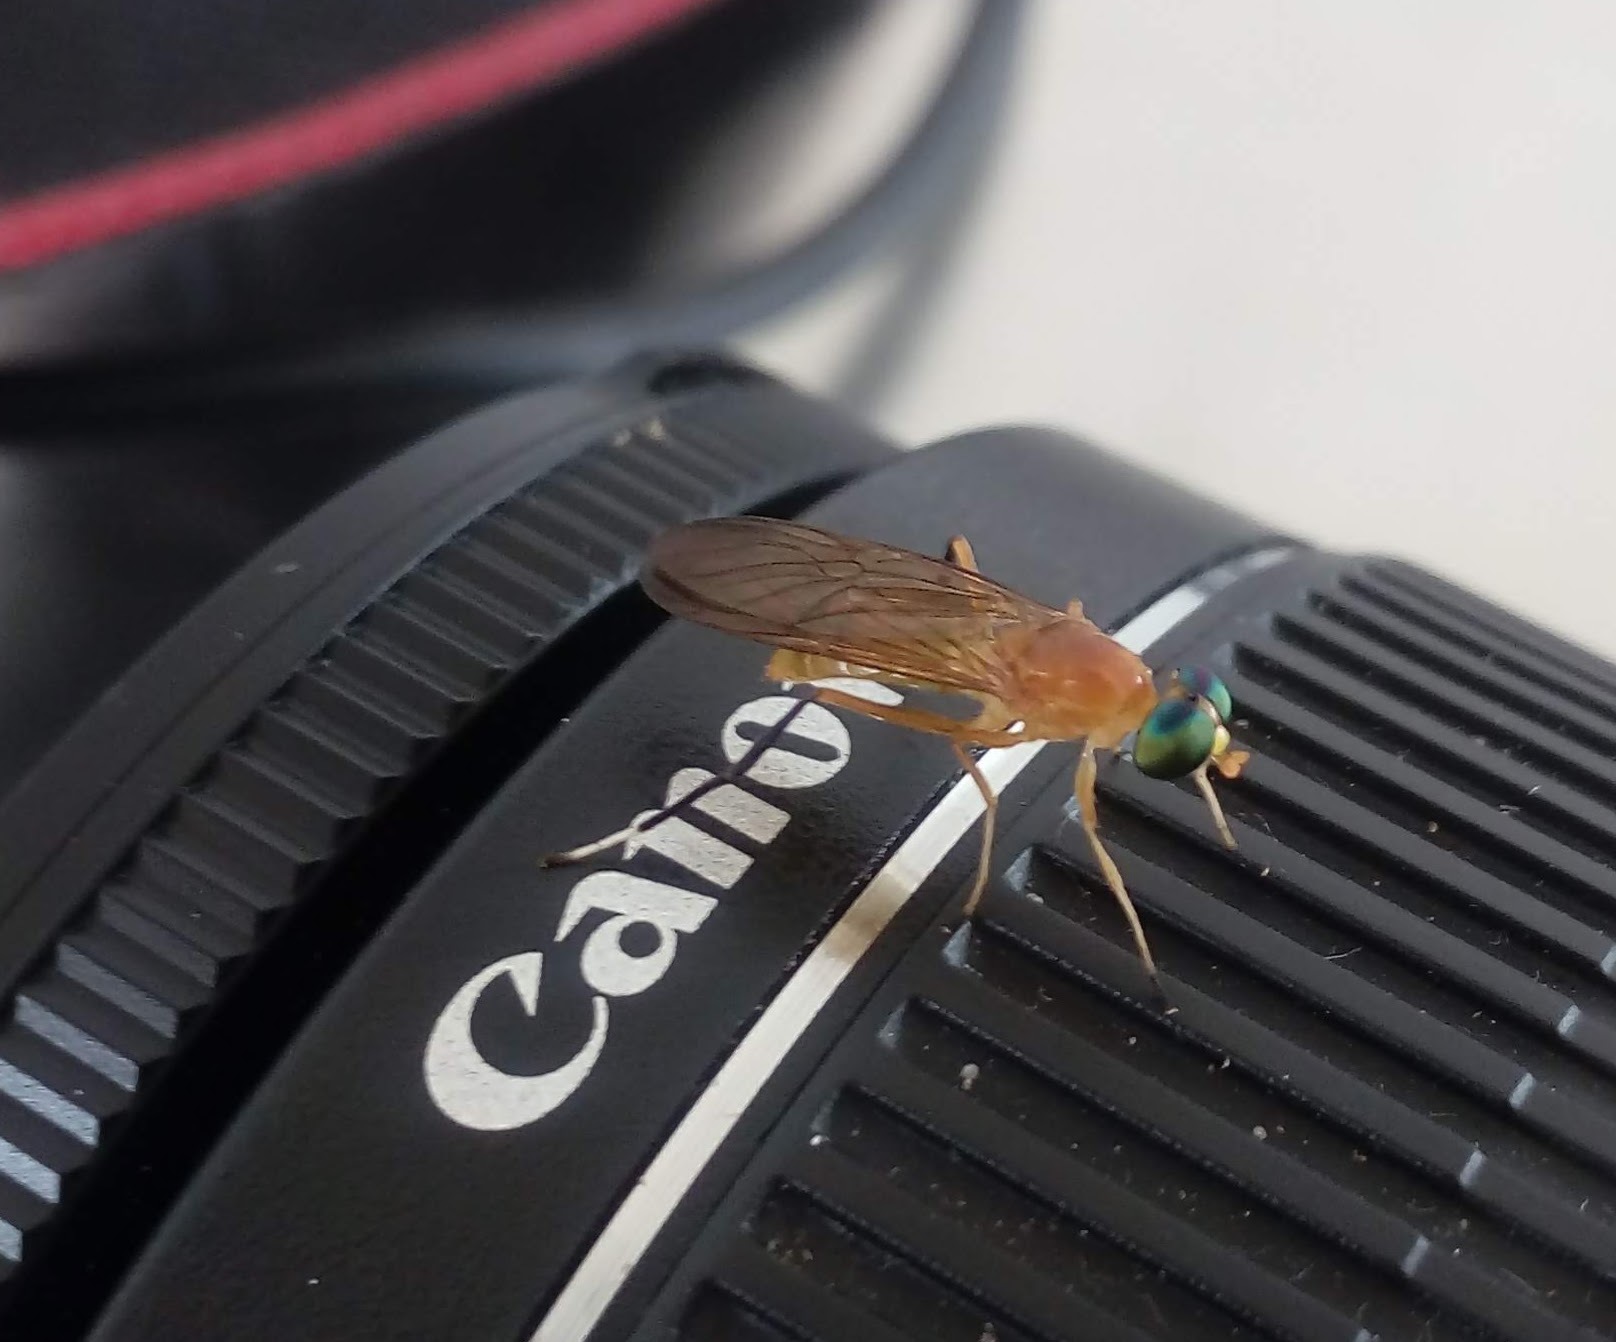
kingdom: Animalia
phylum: Arthropoda
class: Insecta
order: Diptera
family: Stratiomyidae
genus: Ptecticus
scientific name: Ptecticus testaceus
